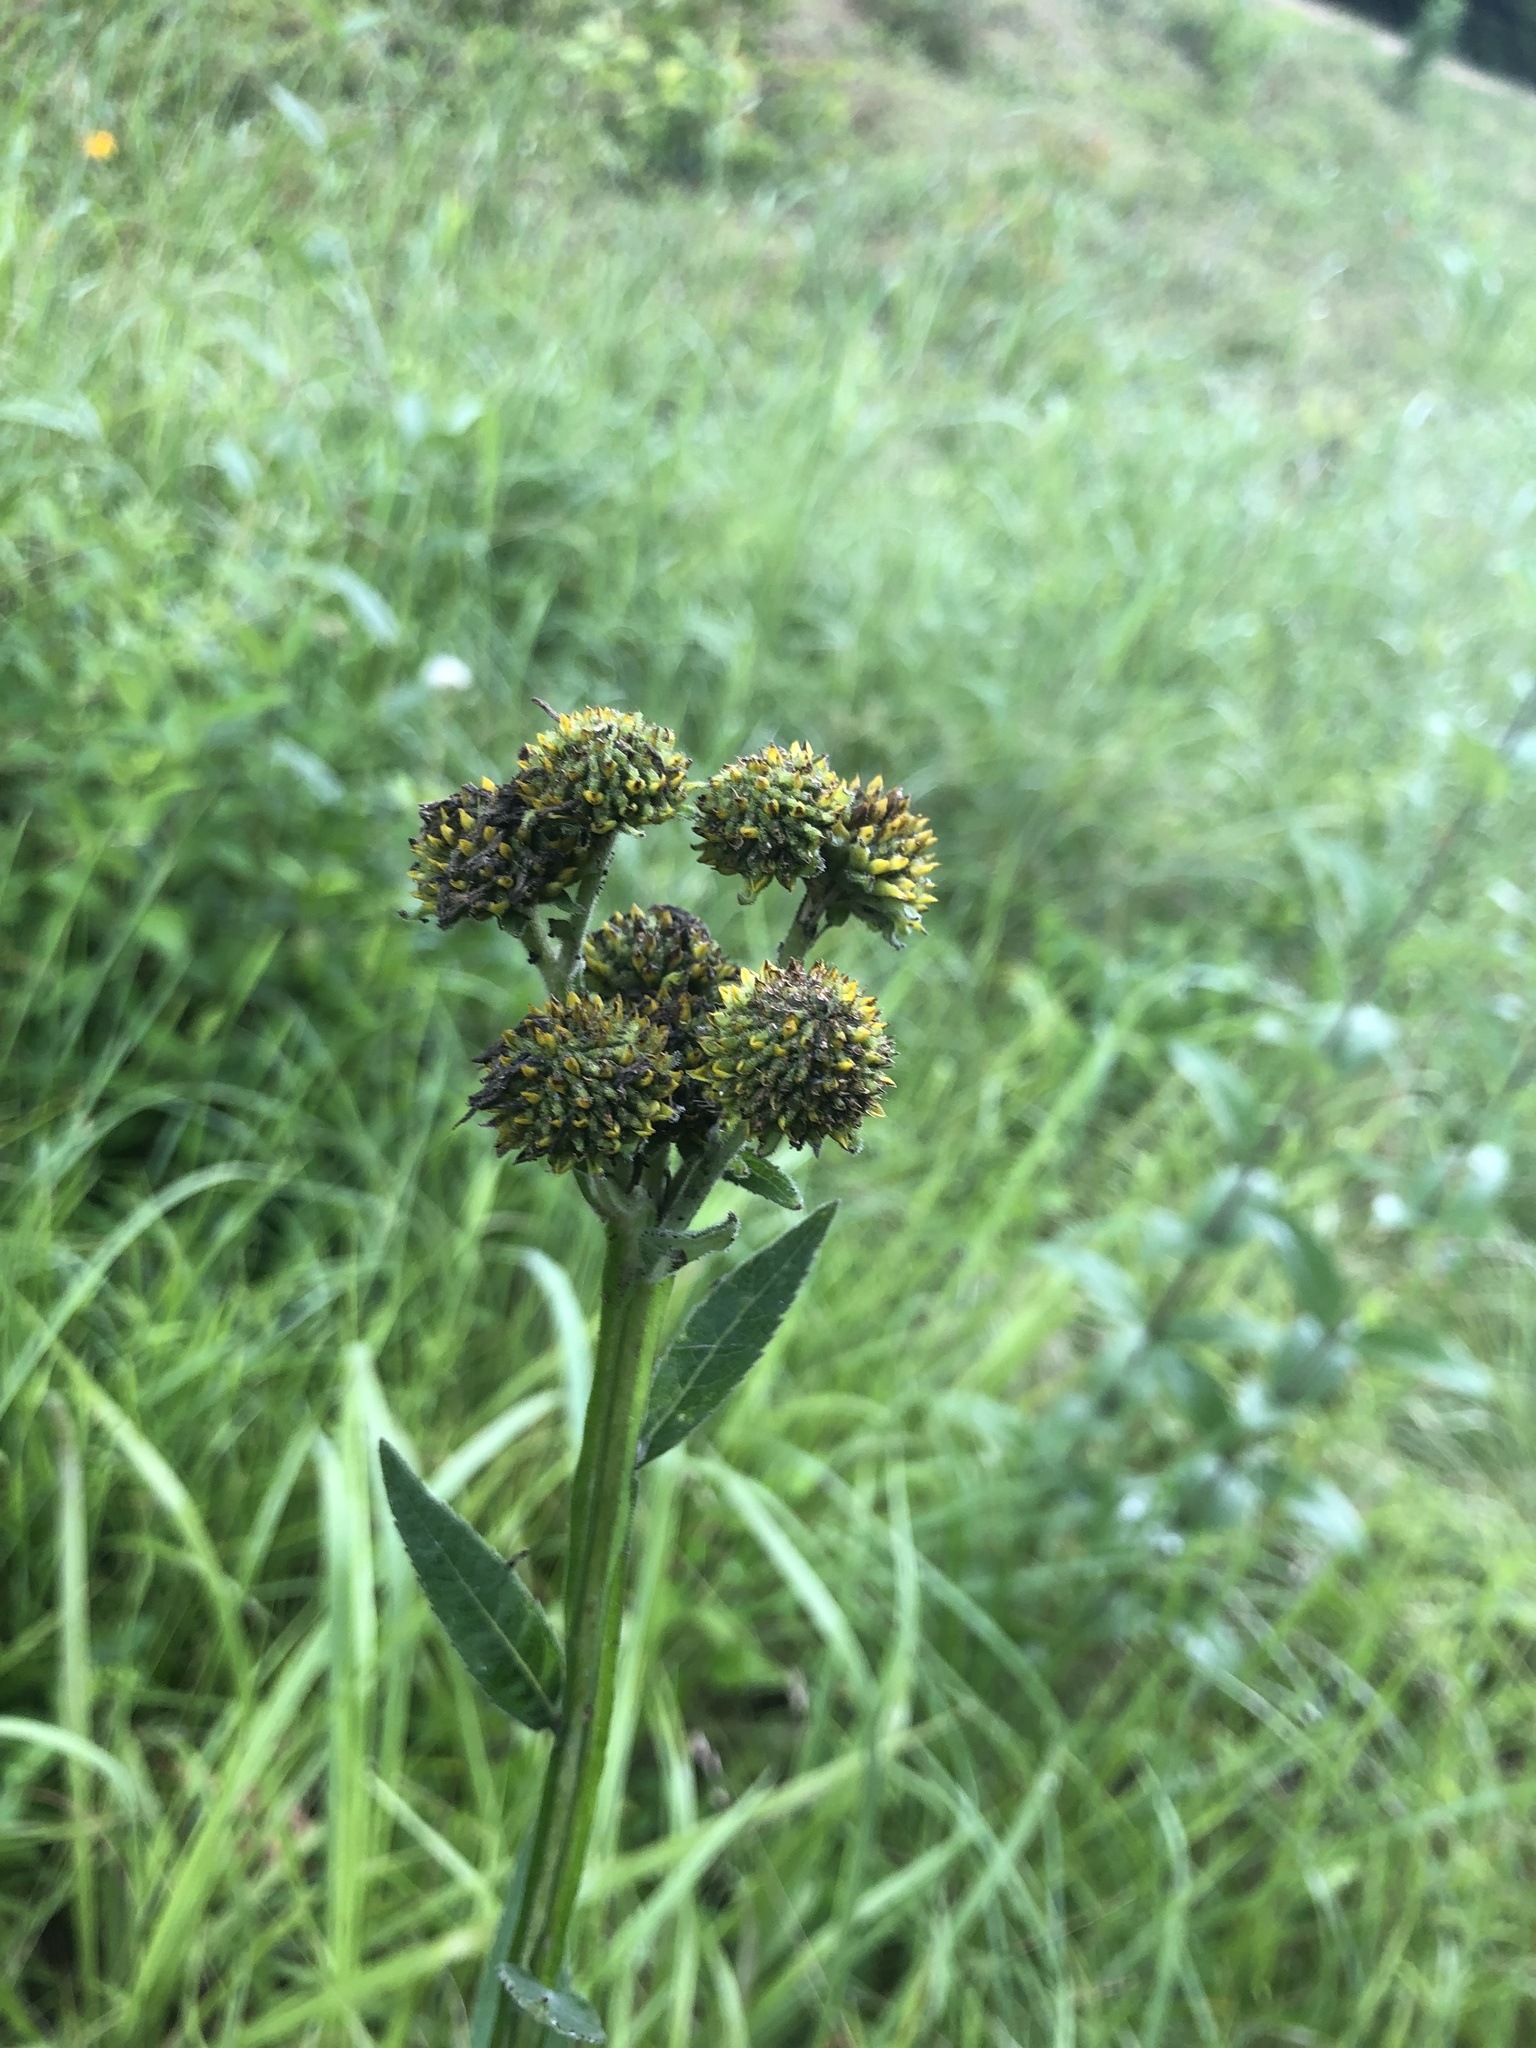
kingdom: Plantae
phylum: Tracheophyta
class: Magnoliopsida
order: Asterales
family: Asteraceae
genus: Verbesina
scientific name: Verbesina helianthoides
